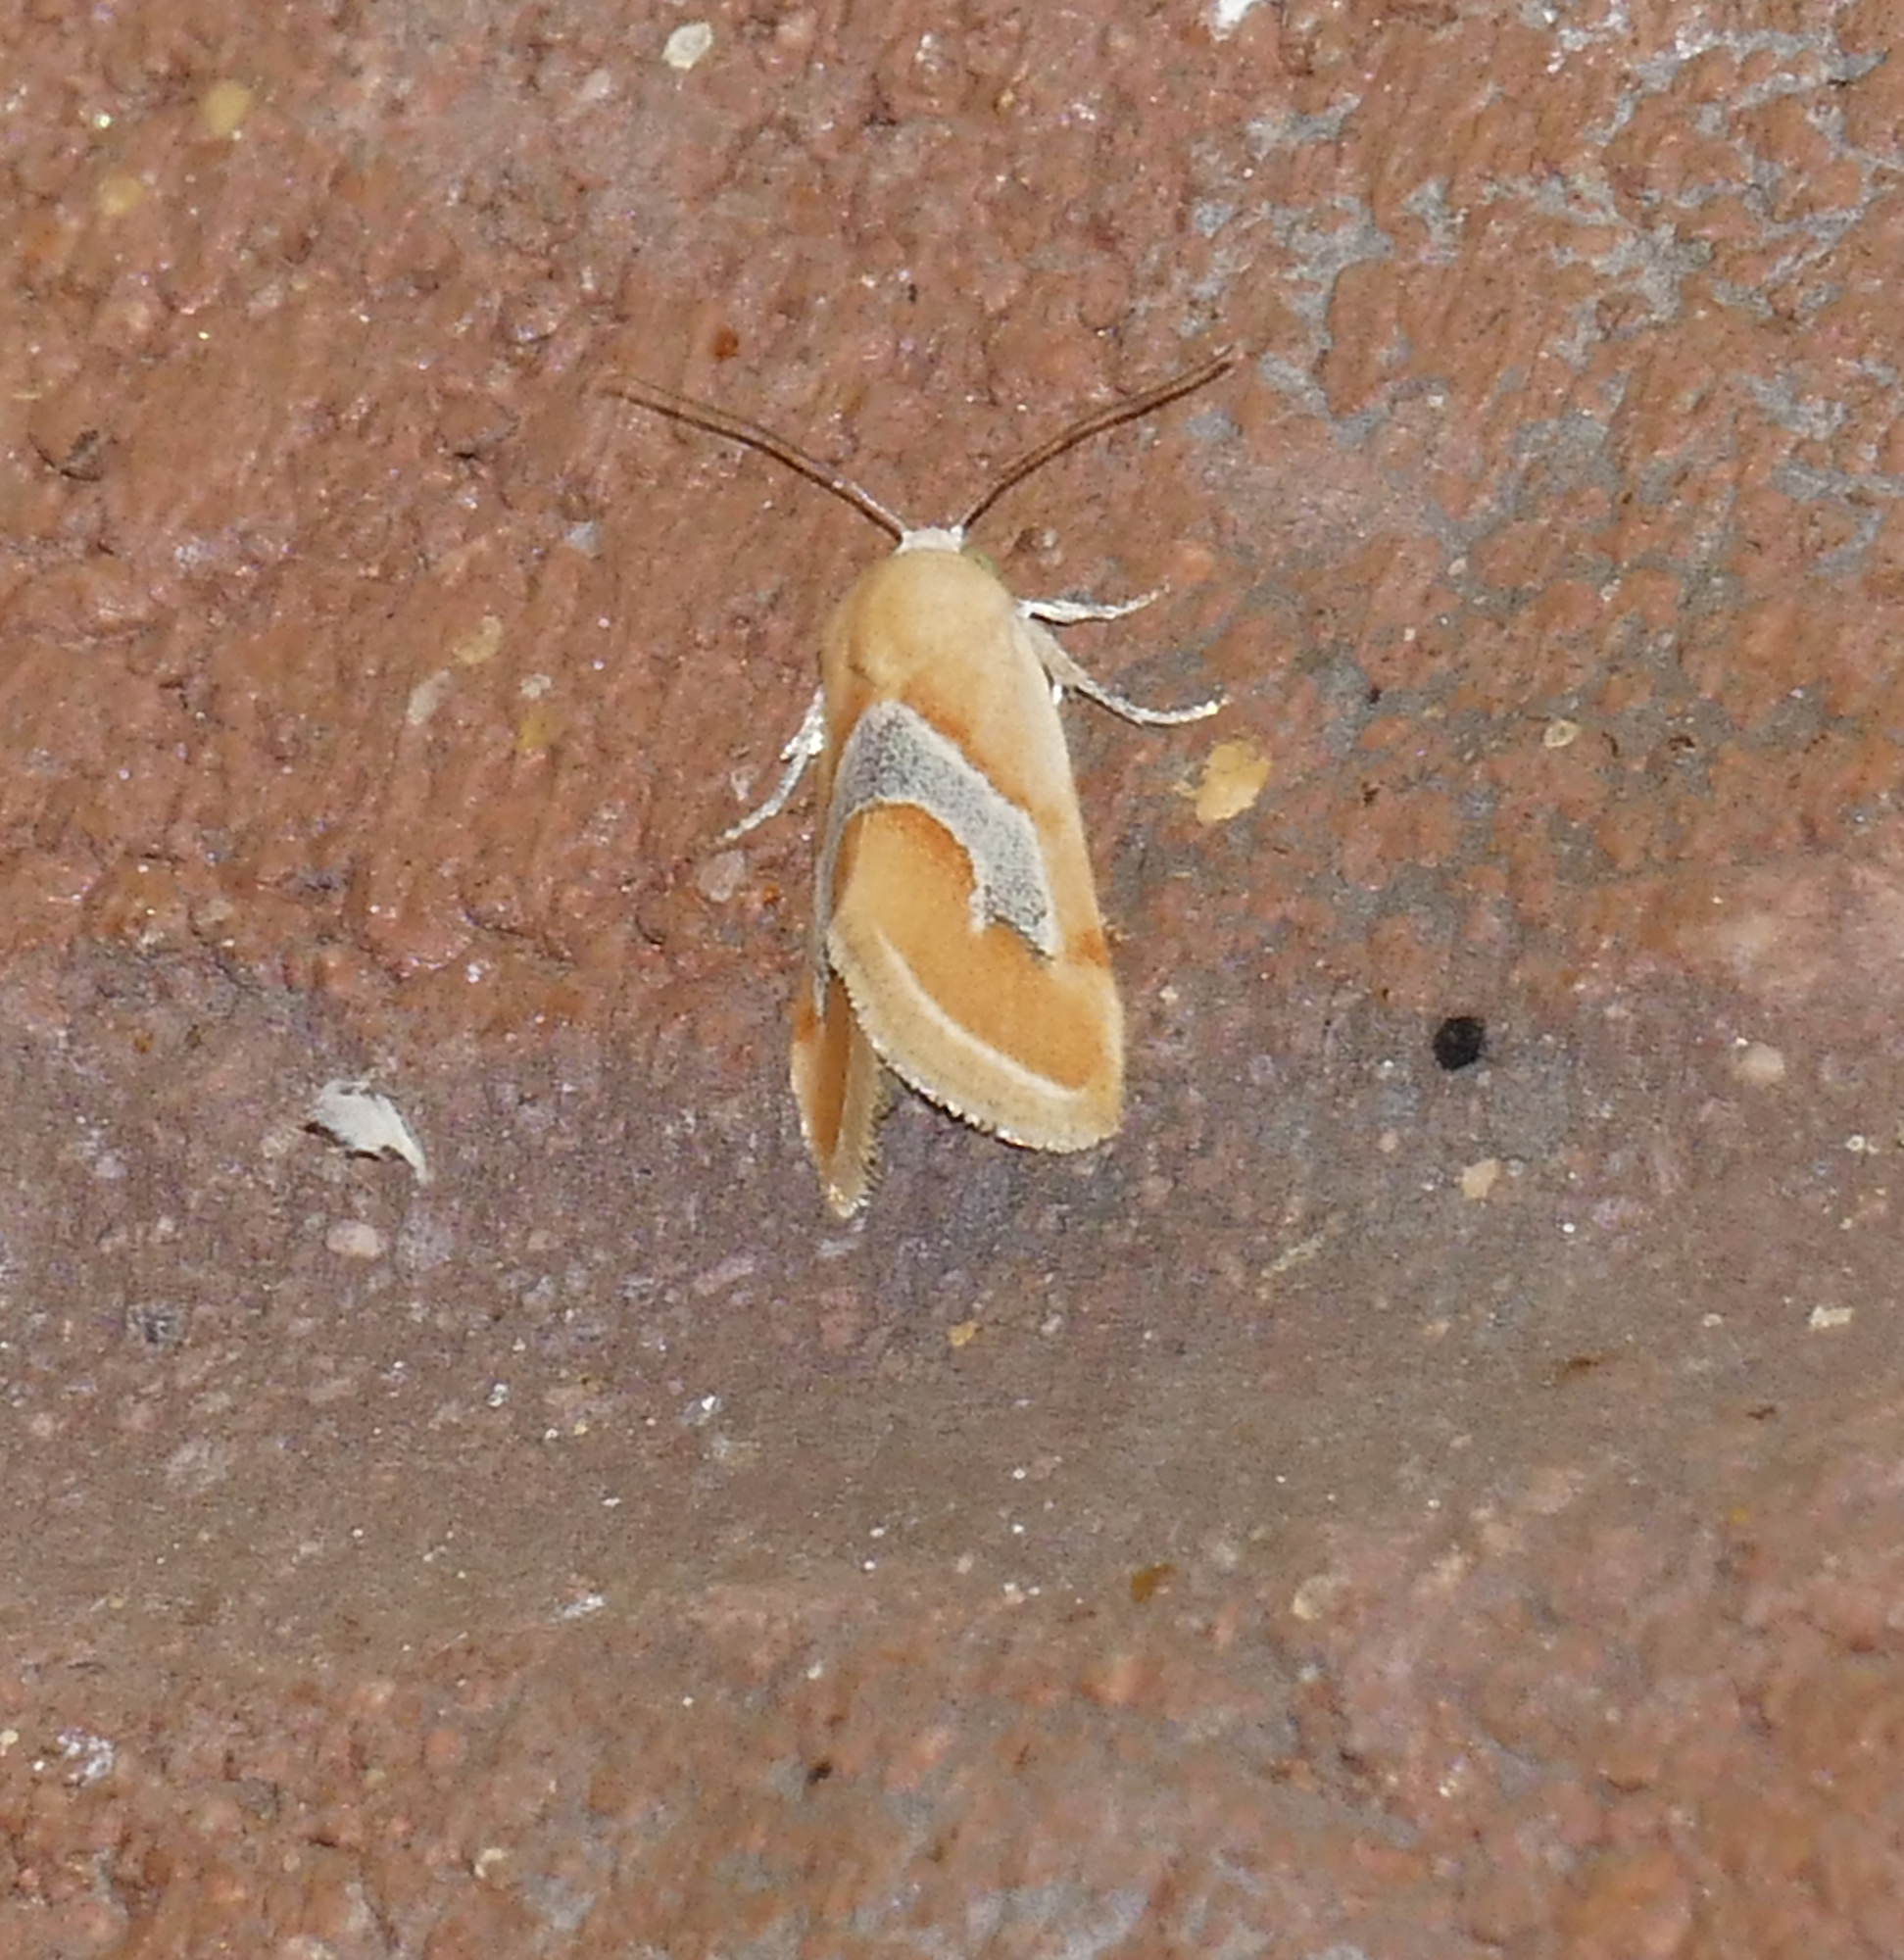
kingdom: Animalia
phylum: Arthropoda
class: Insecta
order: Lepidoptera
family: Noctuidae
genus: Ponometia
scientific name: Ponometia venustula
